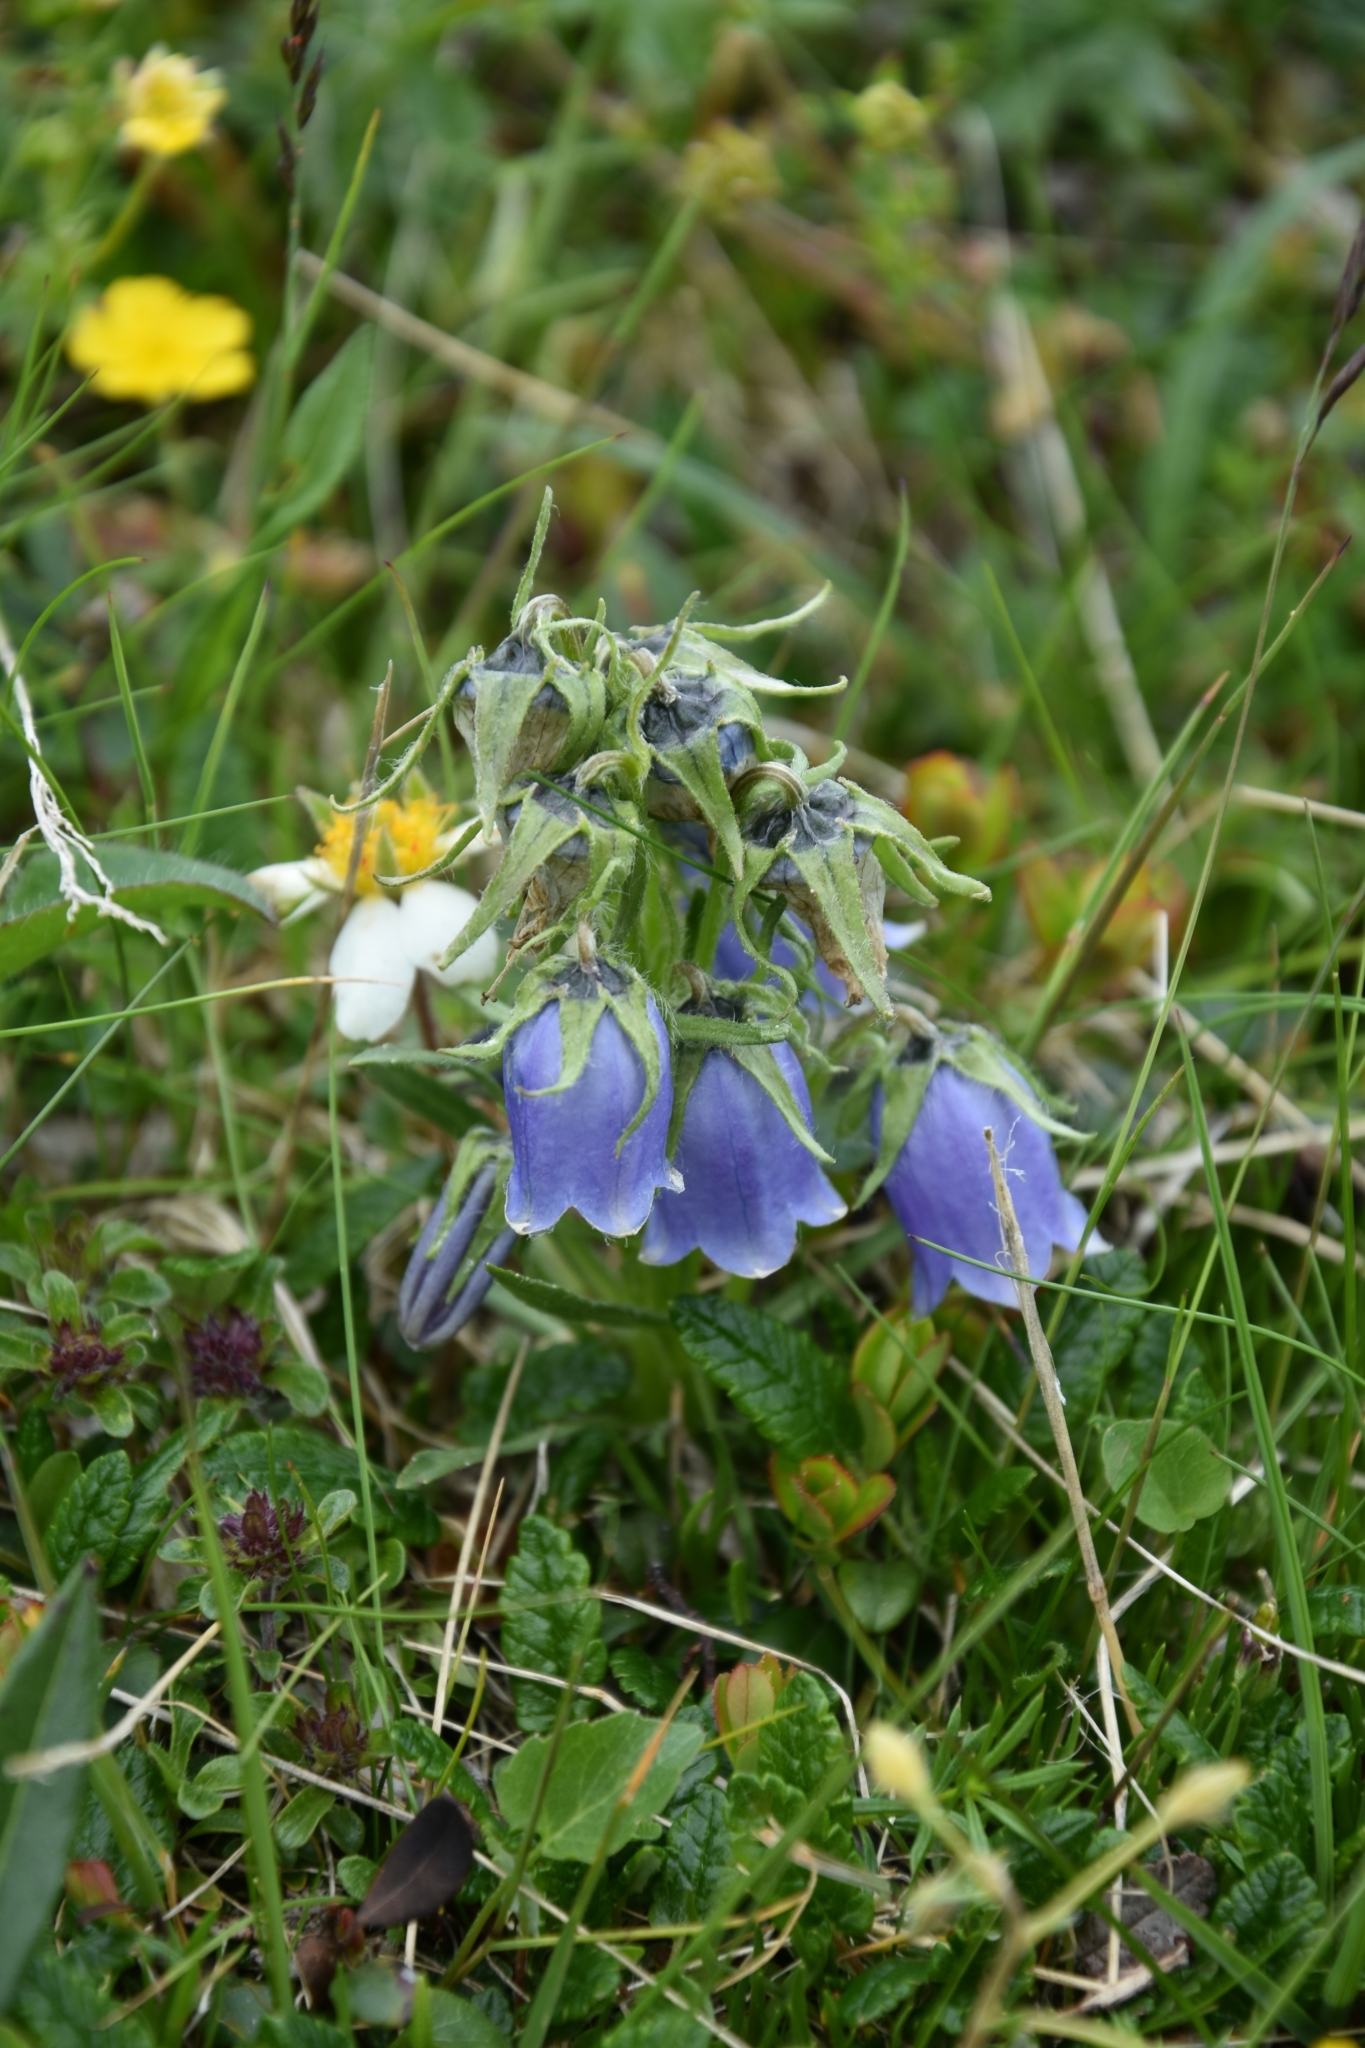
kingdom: Plantae
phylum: Tracheophyta
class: Magnoliopsida
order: Asterales
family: Campanulaceae
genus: Campanula
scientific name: Campanula alpina
